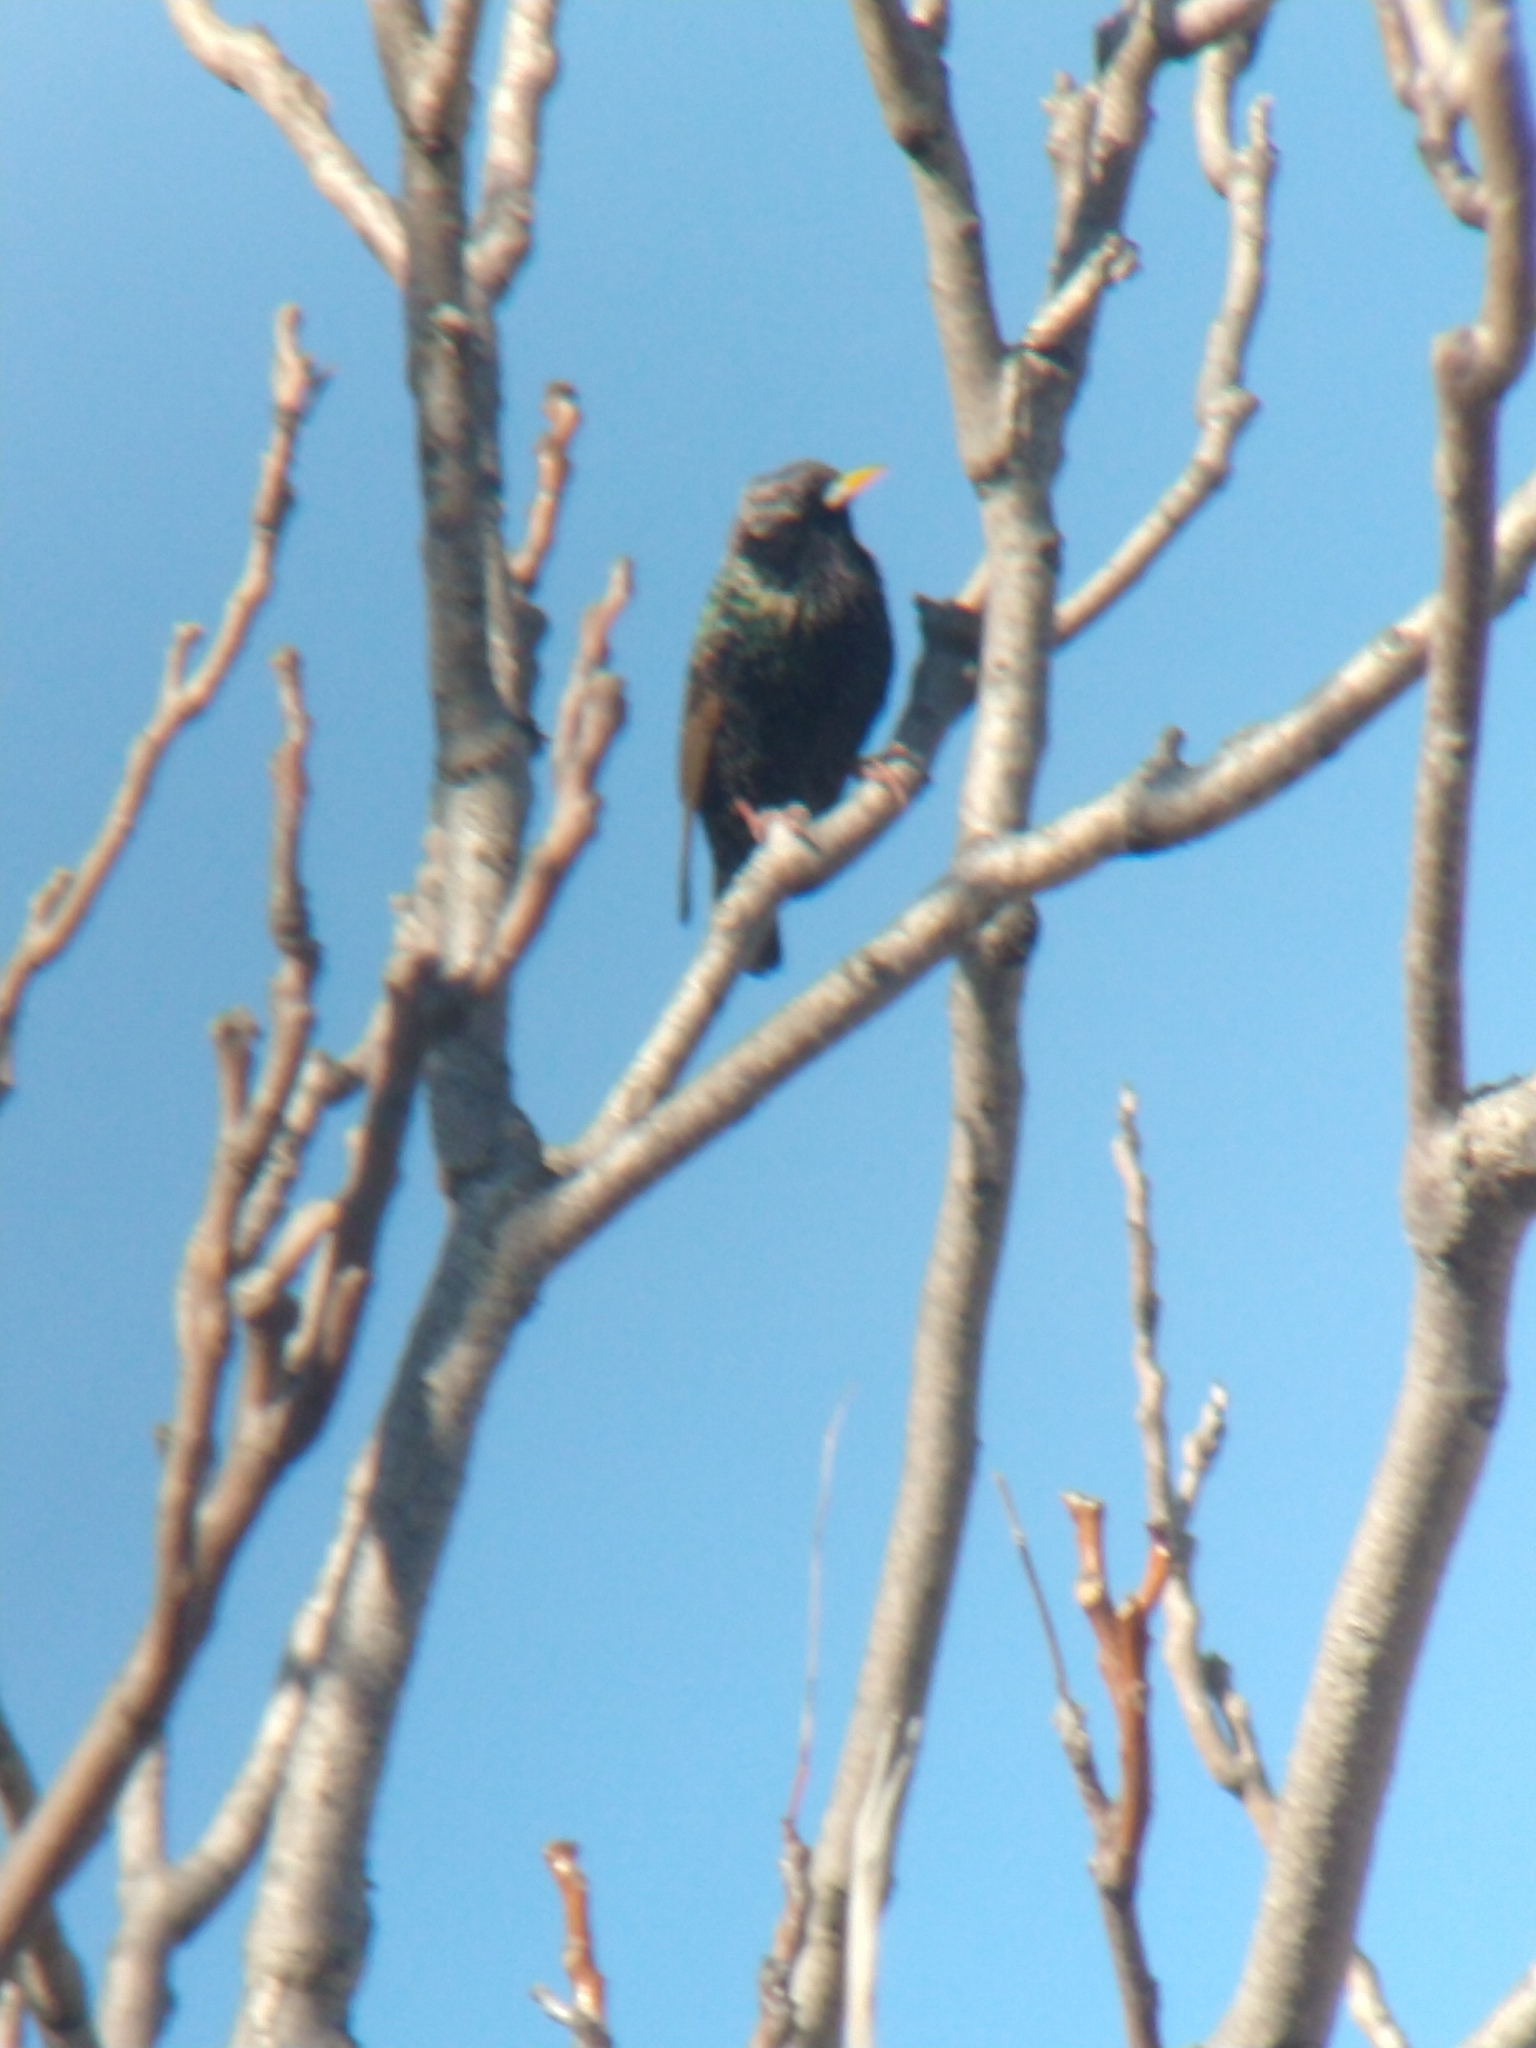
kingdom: Animalia
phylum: Chordata
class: Aves
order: Passeriformes
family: Sturnidae
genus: Sturnus
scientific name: Sturnus vulgaris
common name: Common starling
